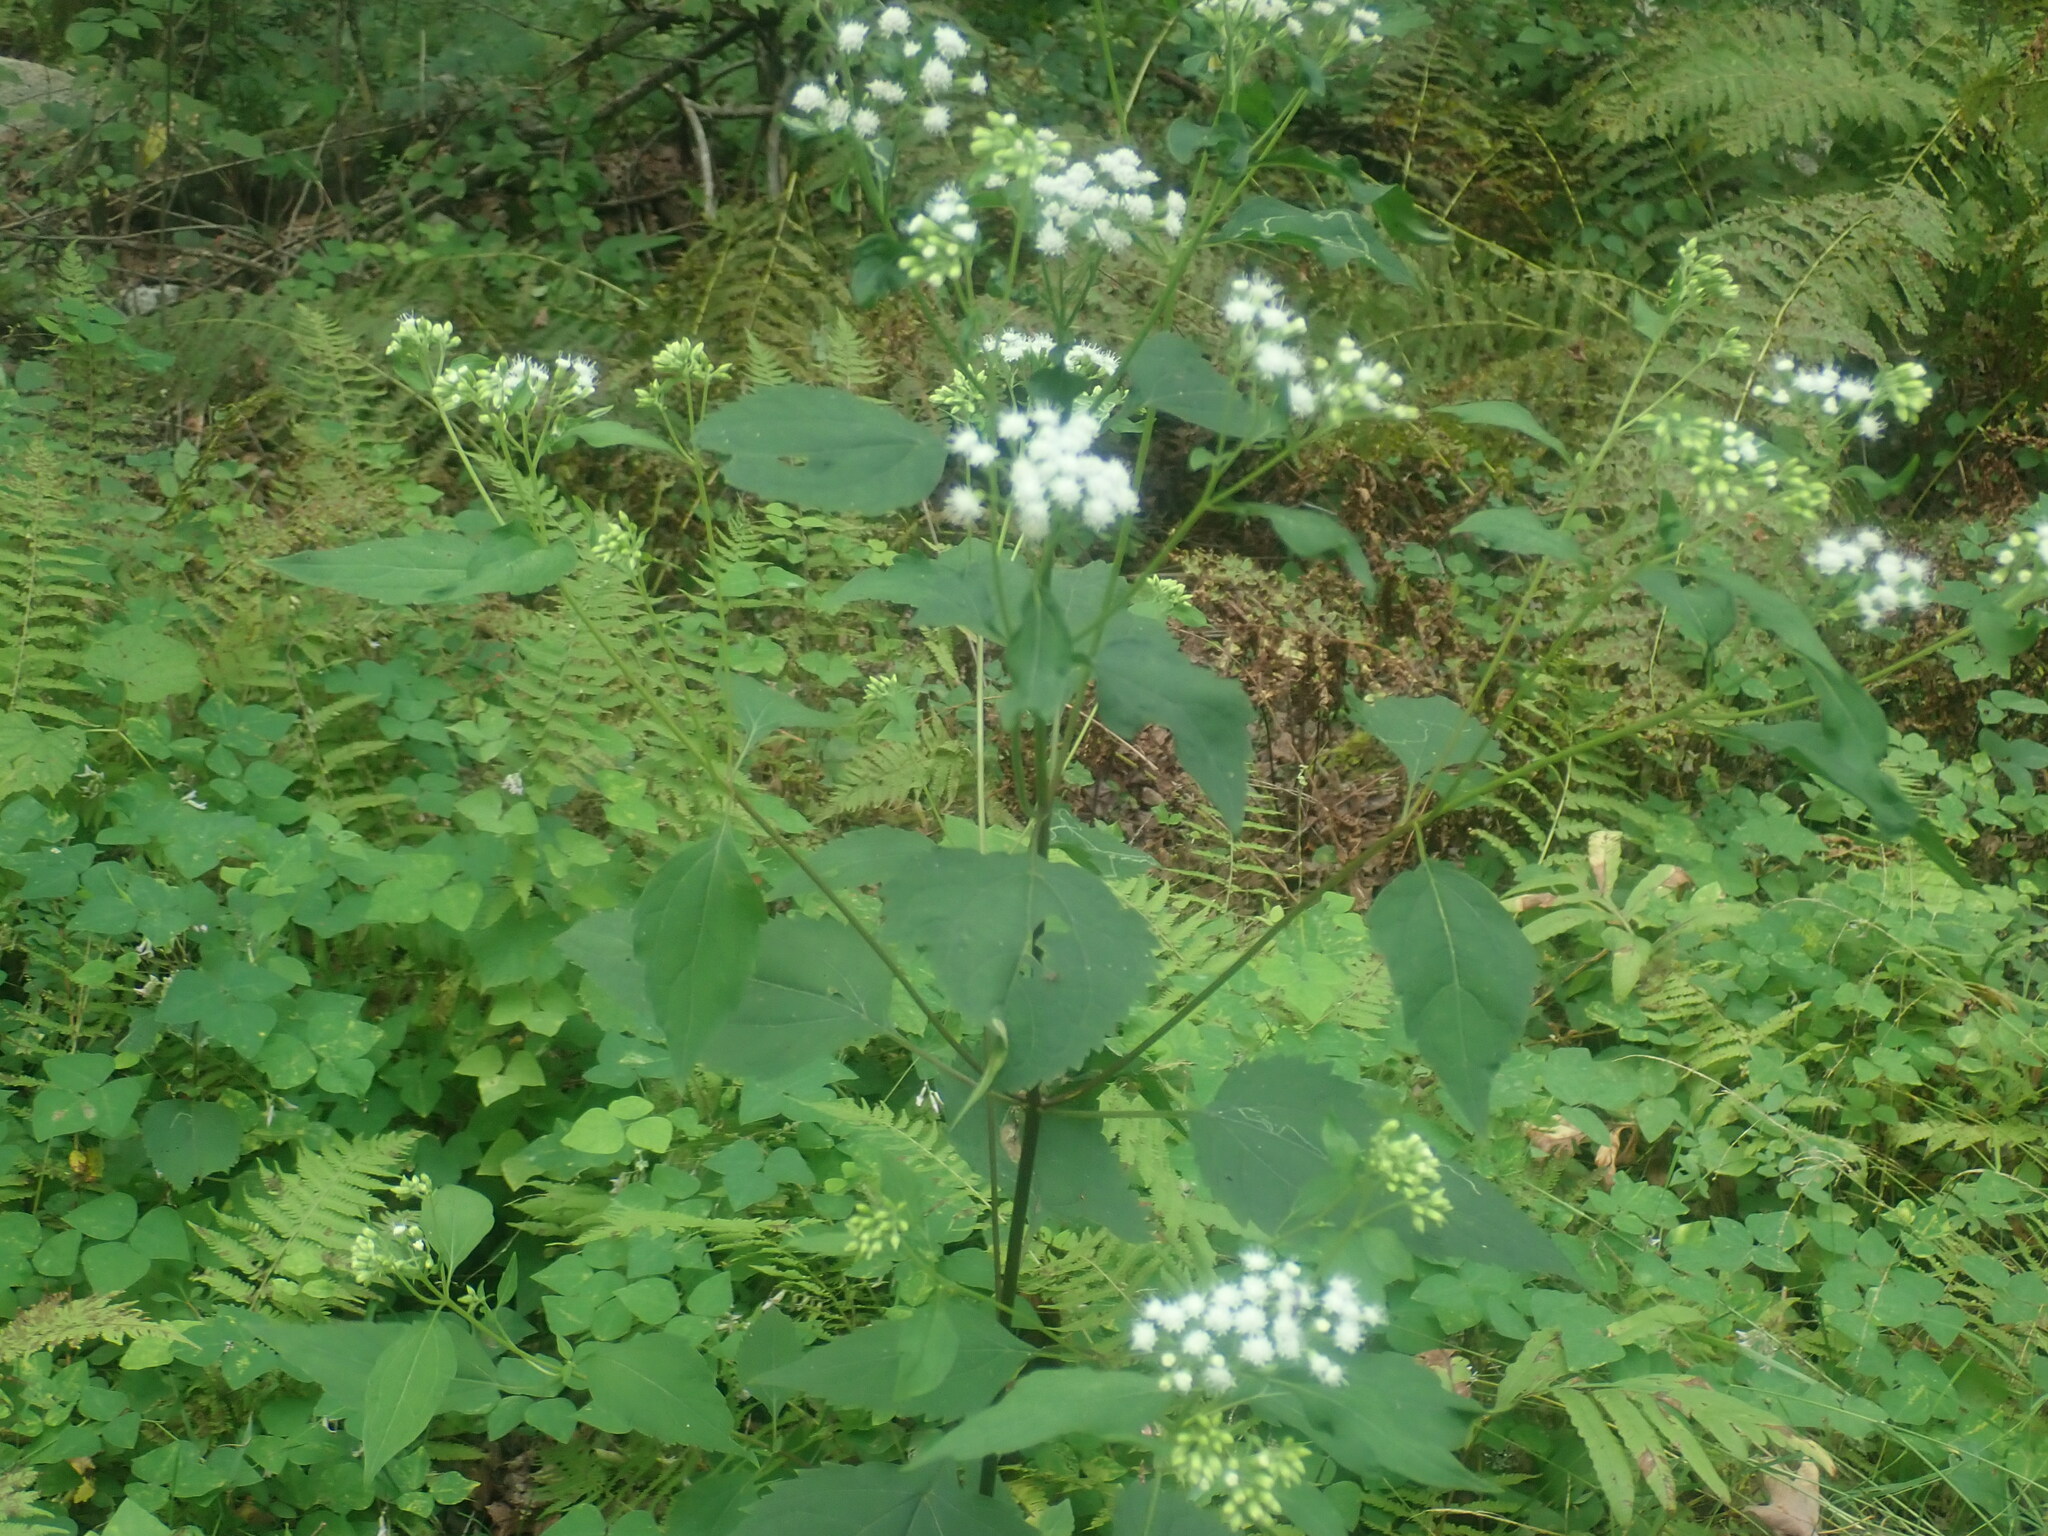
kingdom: Plantae
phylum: Tracheophyta
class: Magnoliopsida
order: Asterales
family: Asteraceae
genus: Ageratina
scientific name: Ageratina altissima
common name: White snakeroot
